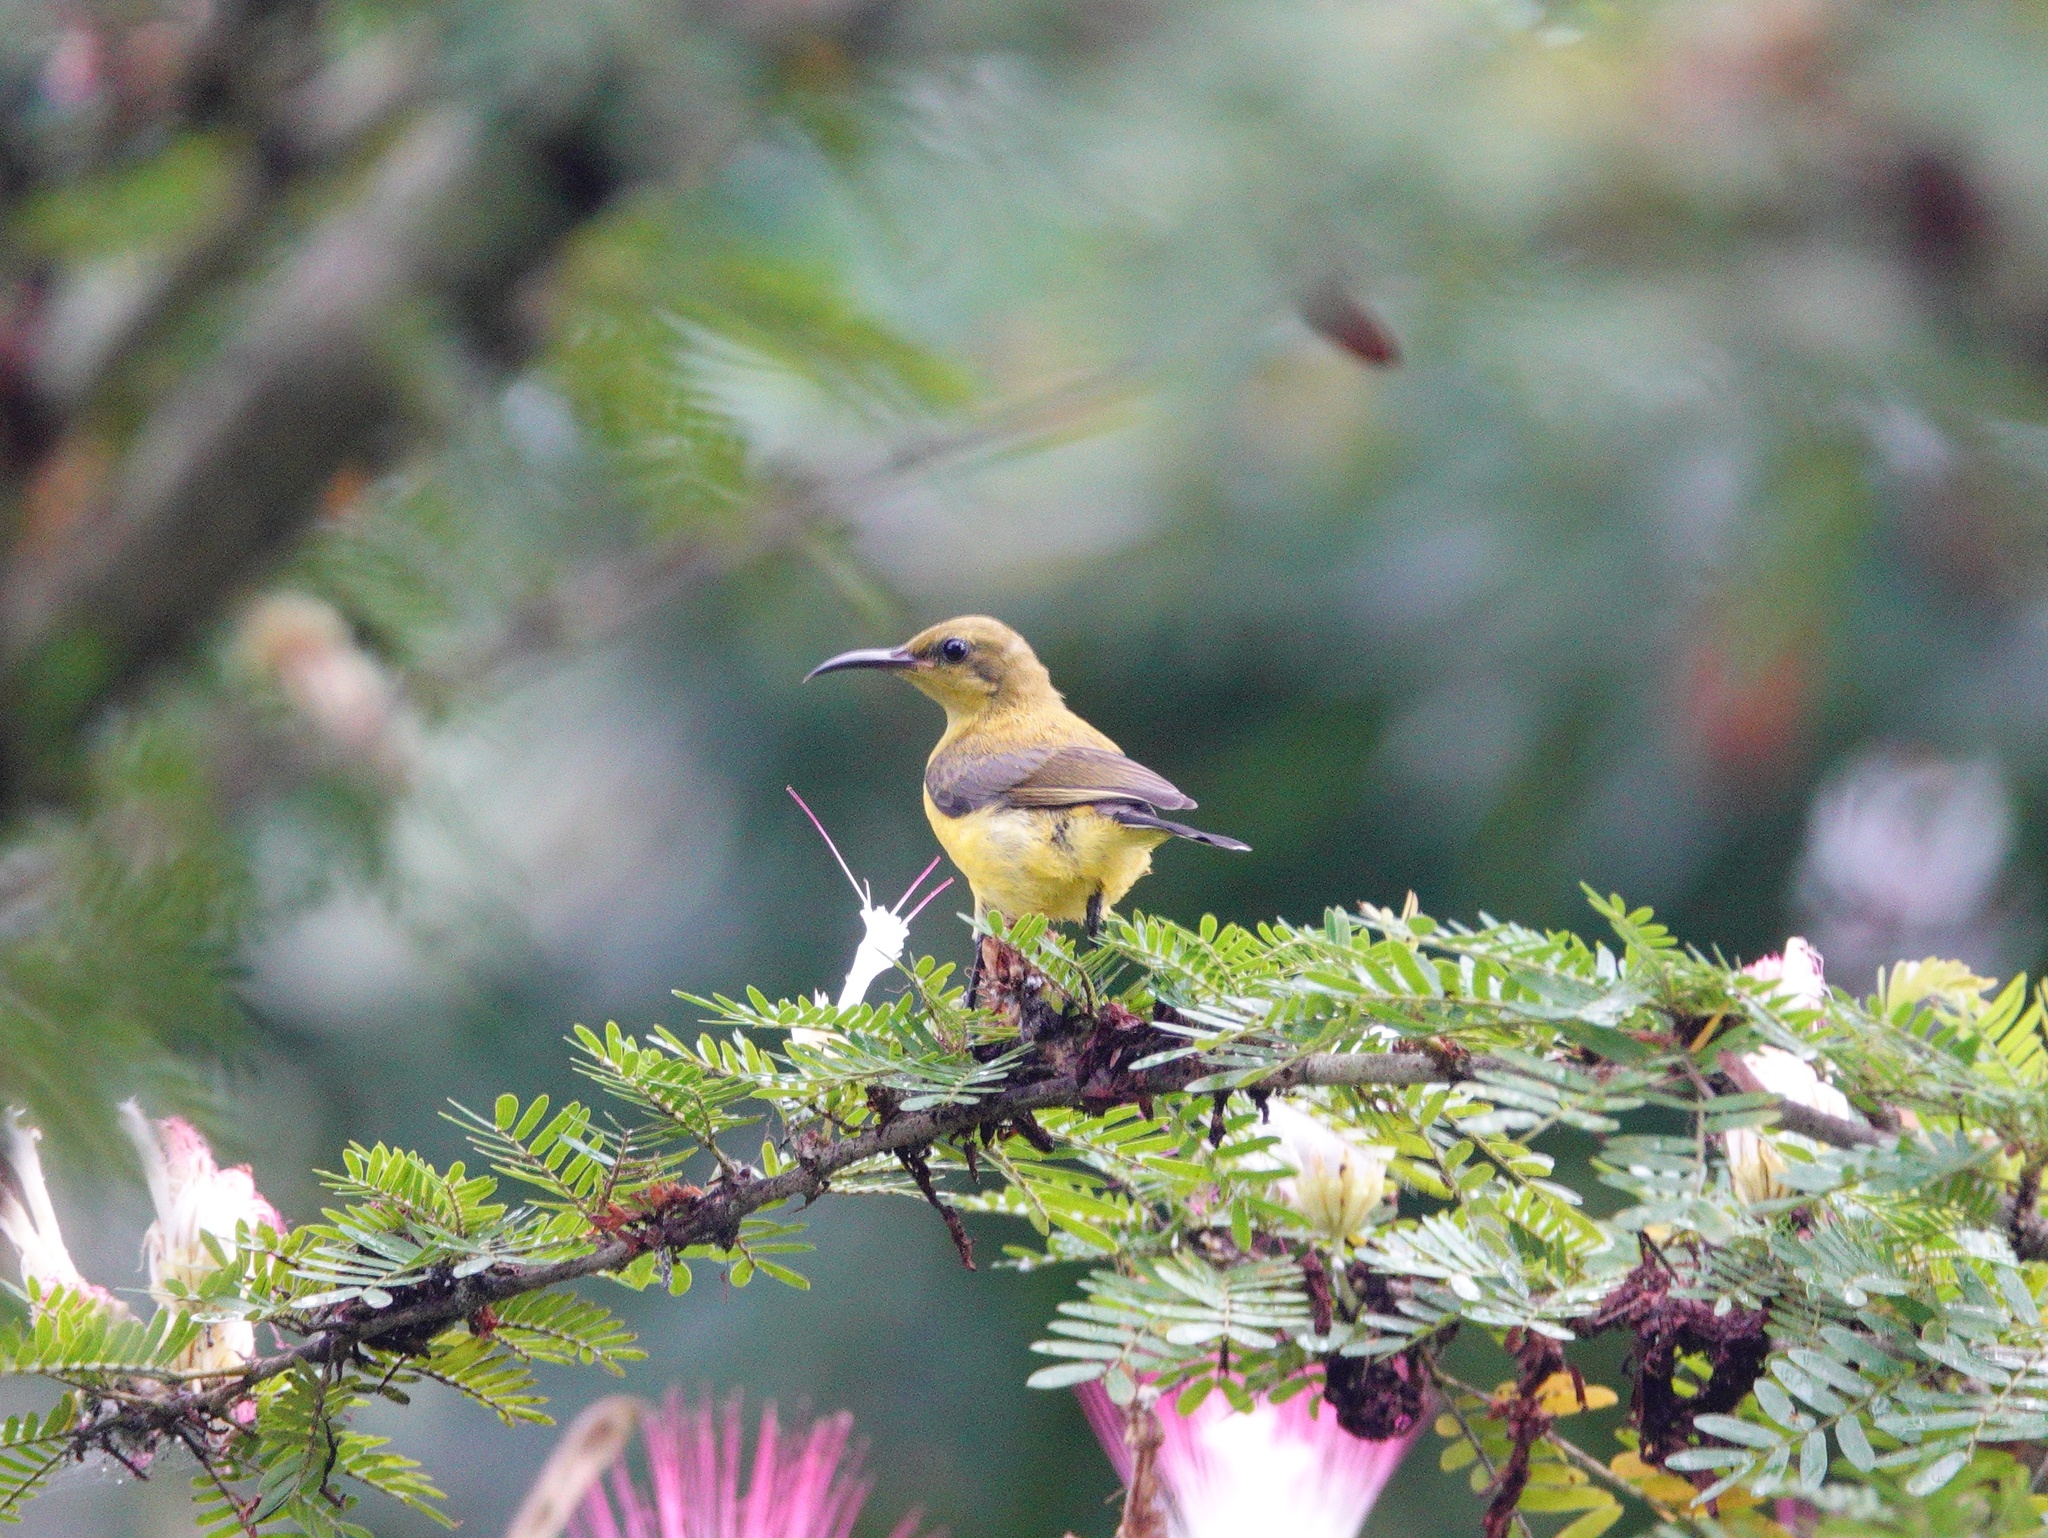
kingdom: Animalia
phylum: Chordata
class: Aves
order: Passeriformes
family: Nectariniidae
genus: Cinnyris
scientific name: Cinnyris
